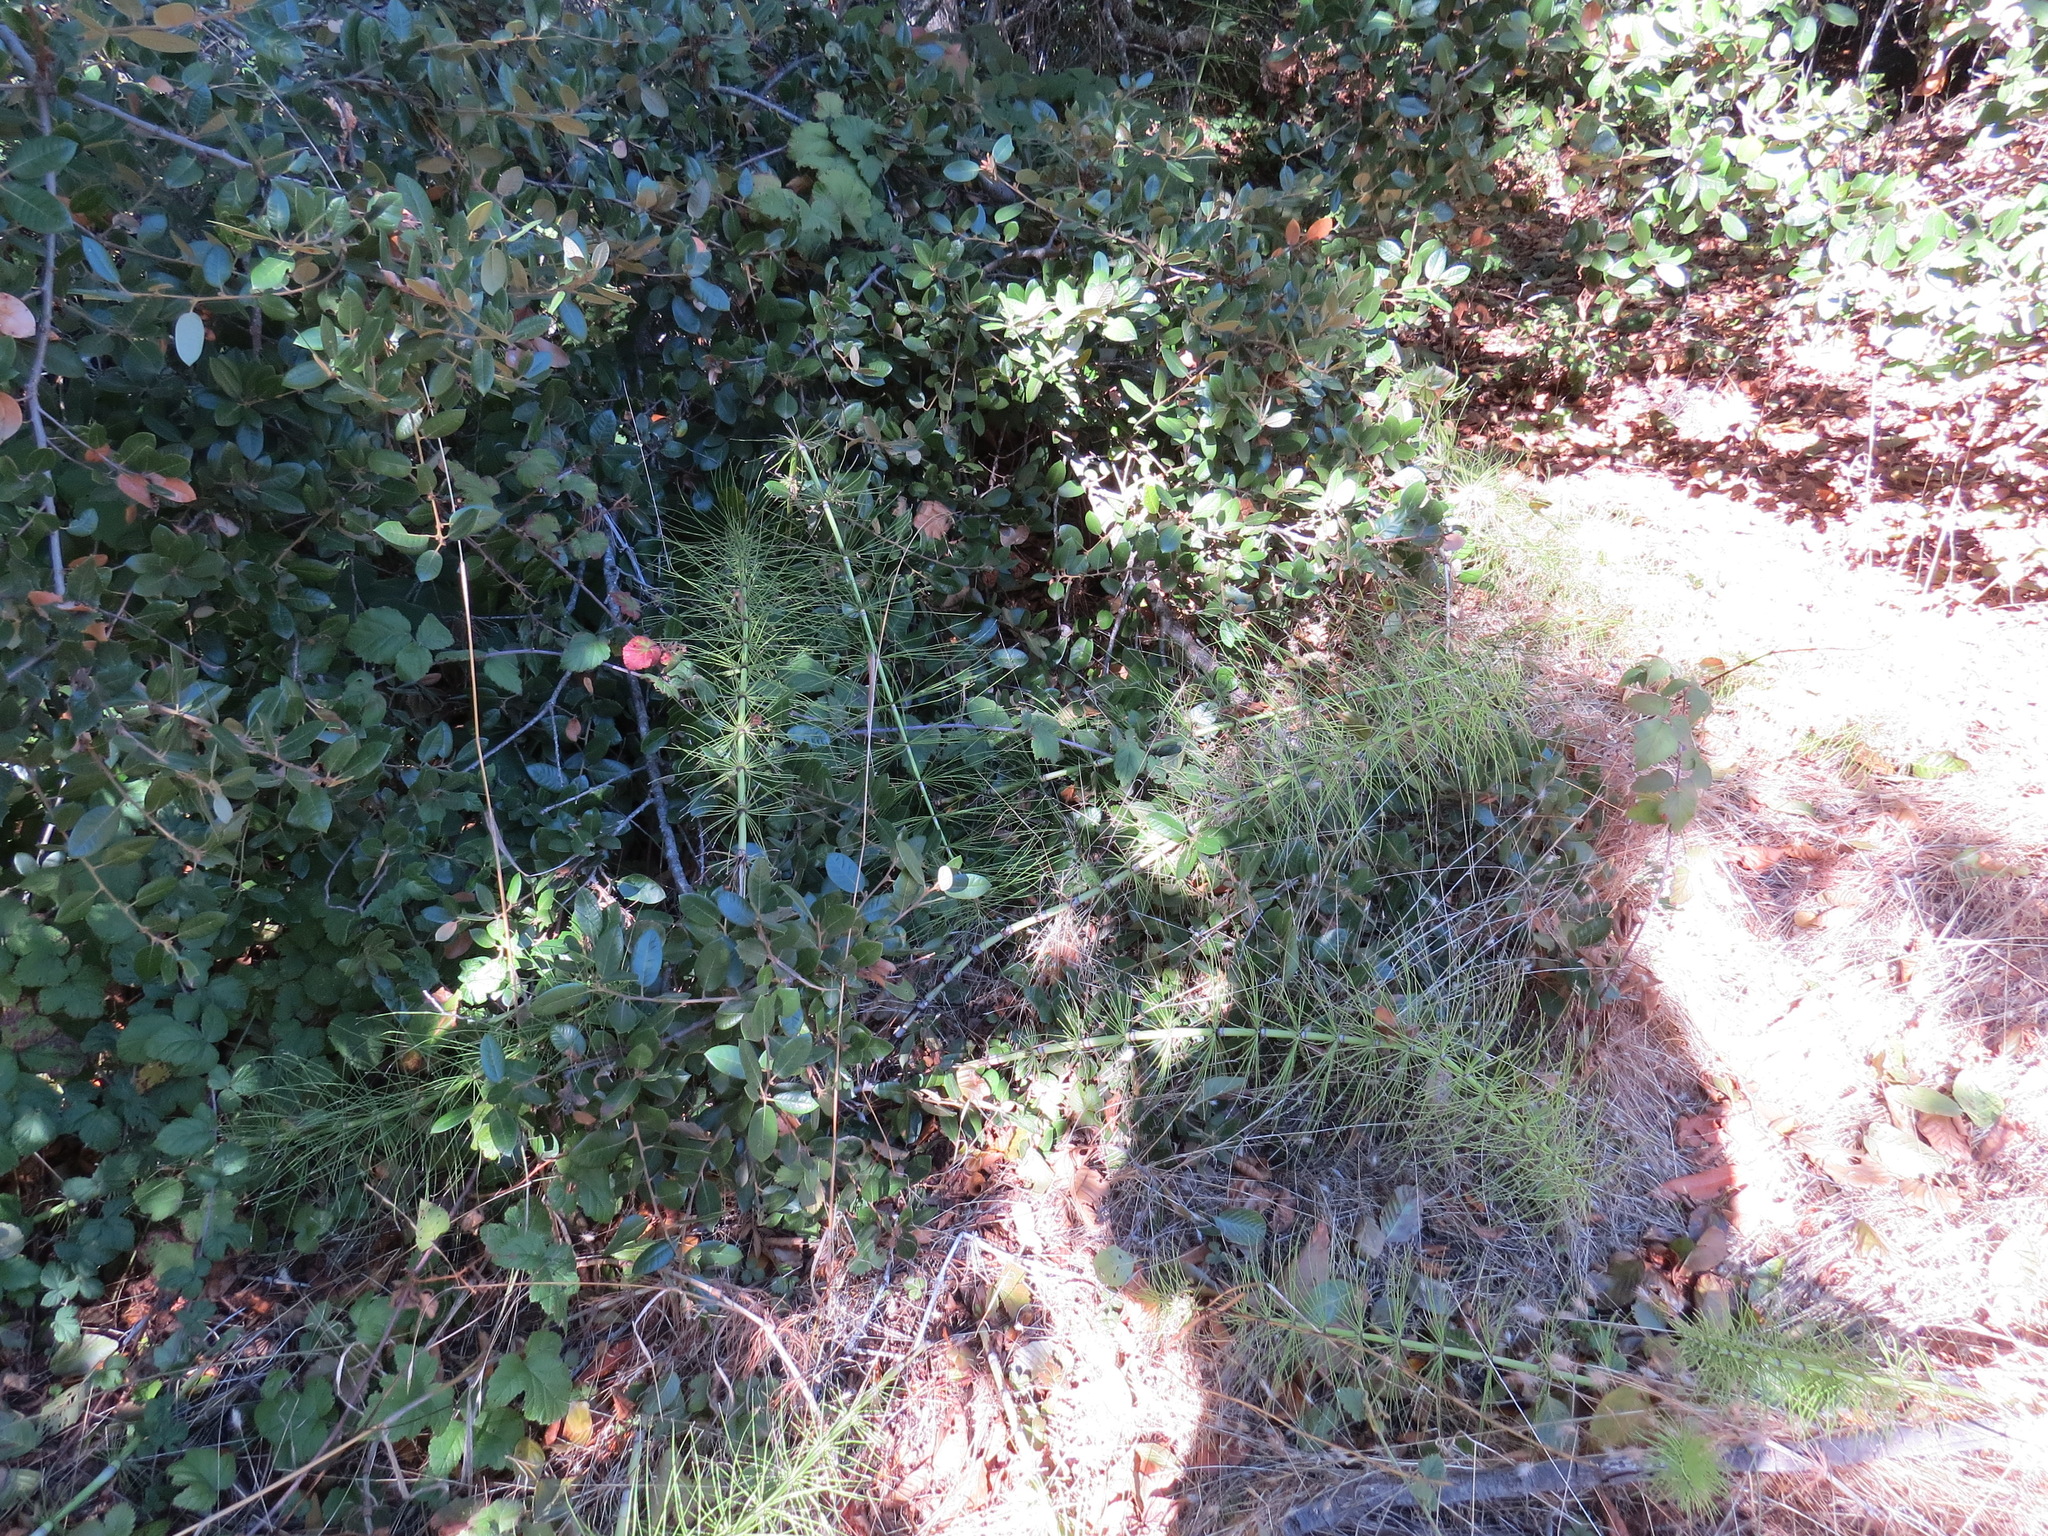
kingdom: Plantae
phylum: Tracheophyta
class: Polypodiopsida
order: Equisetales
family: Equisetaceae
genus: Equisetum
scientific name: Equisetum telmateia
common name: Great horsetail
